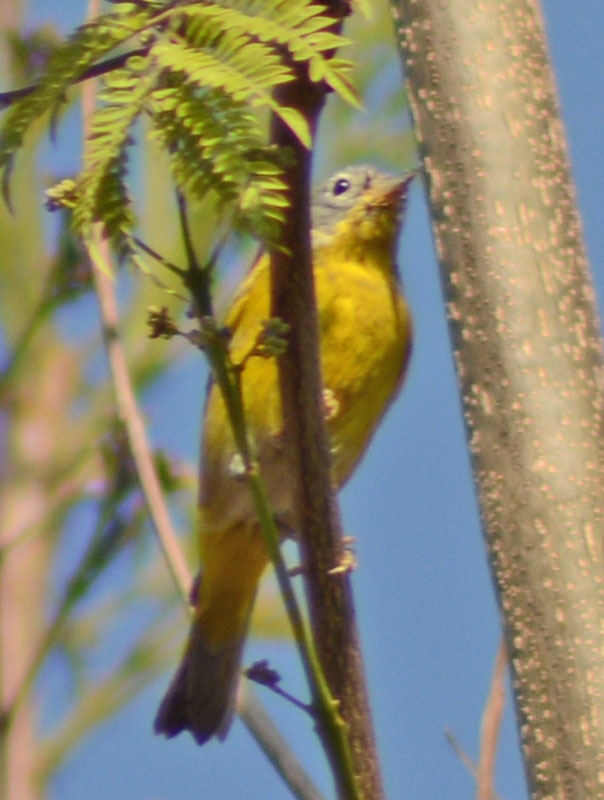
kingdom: Animalia
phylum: Chordata
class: Aves
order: Passeriformes
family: Parulidae
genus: Leiothlypis
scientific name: Leiothlypis ruficapilla
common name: Nashville warbler
